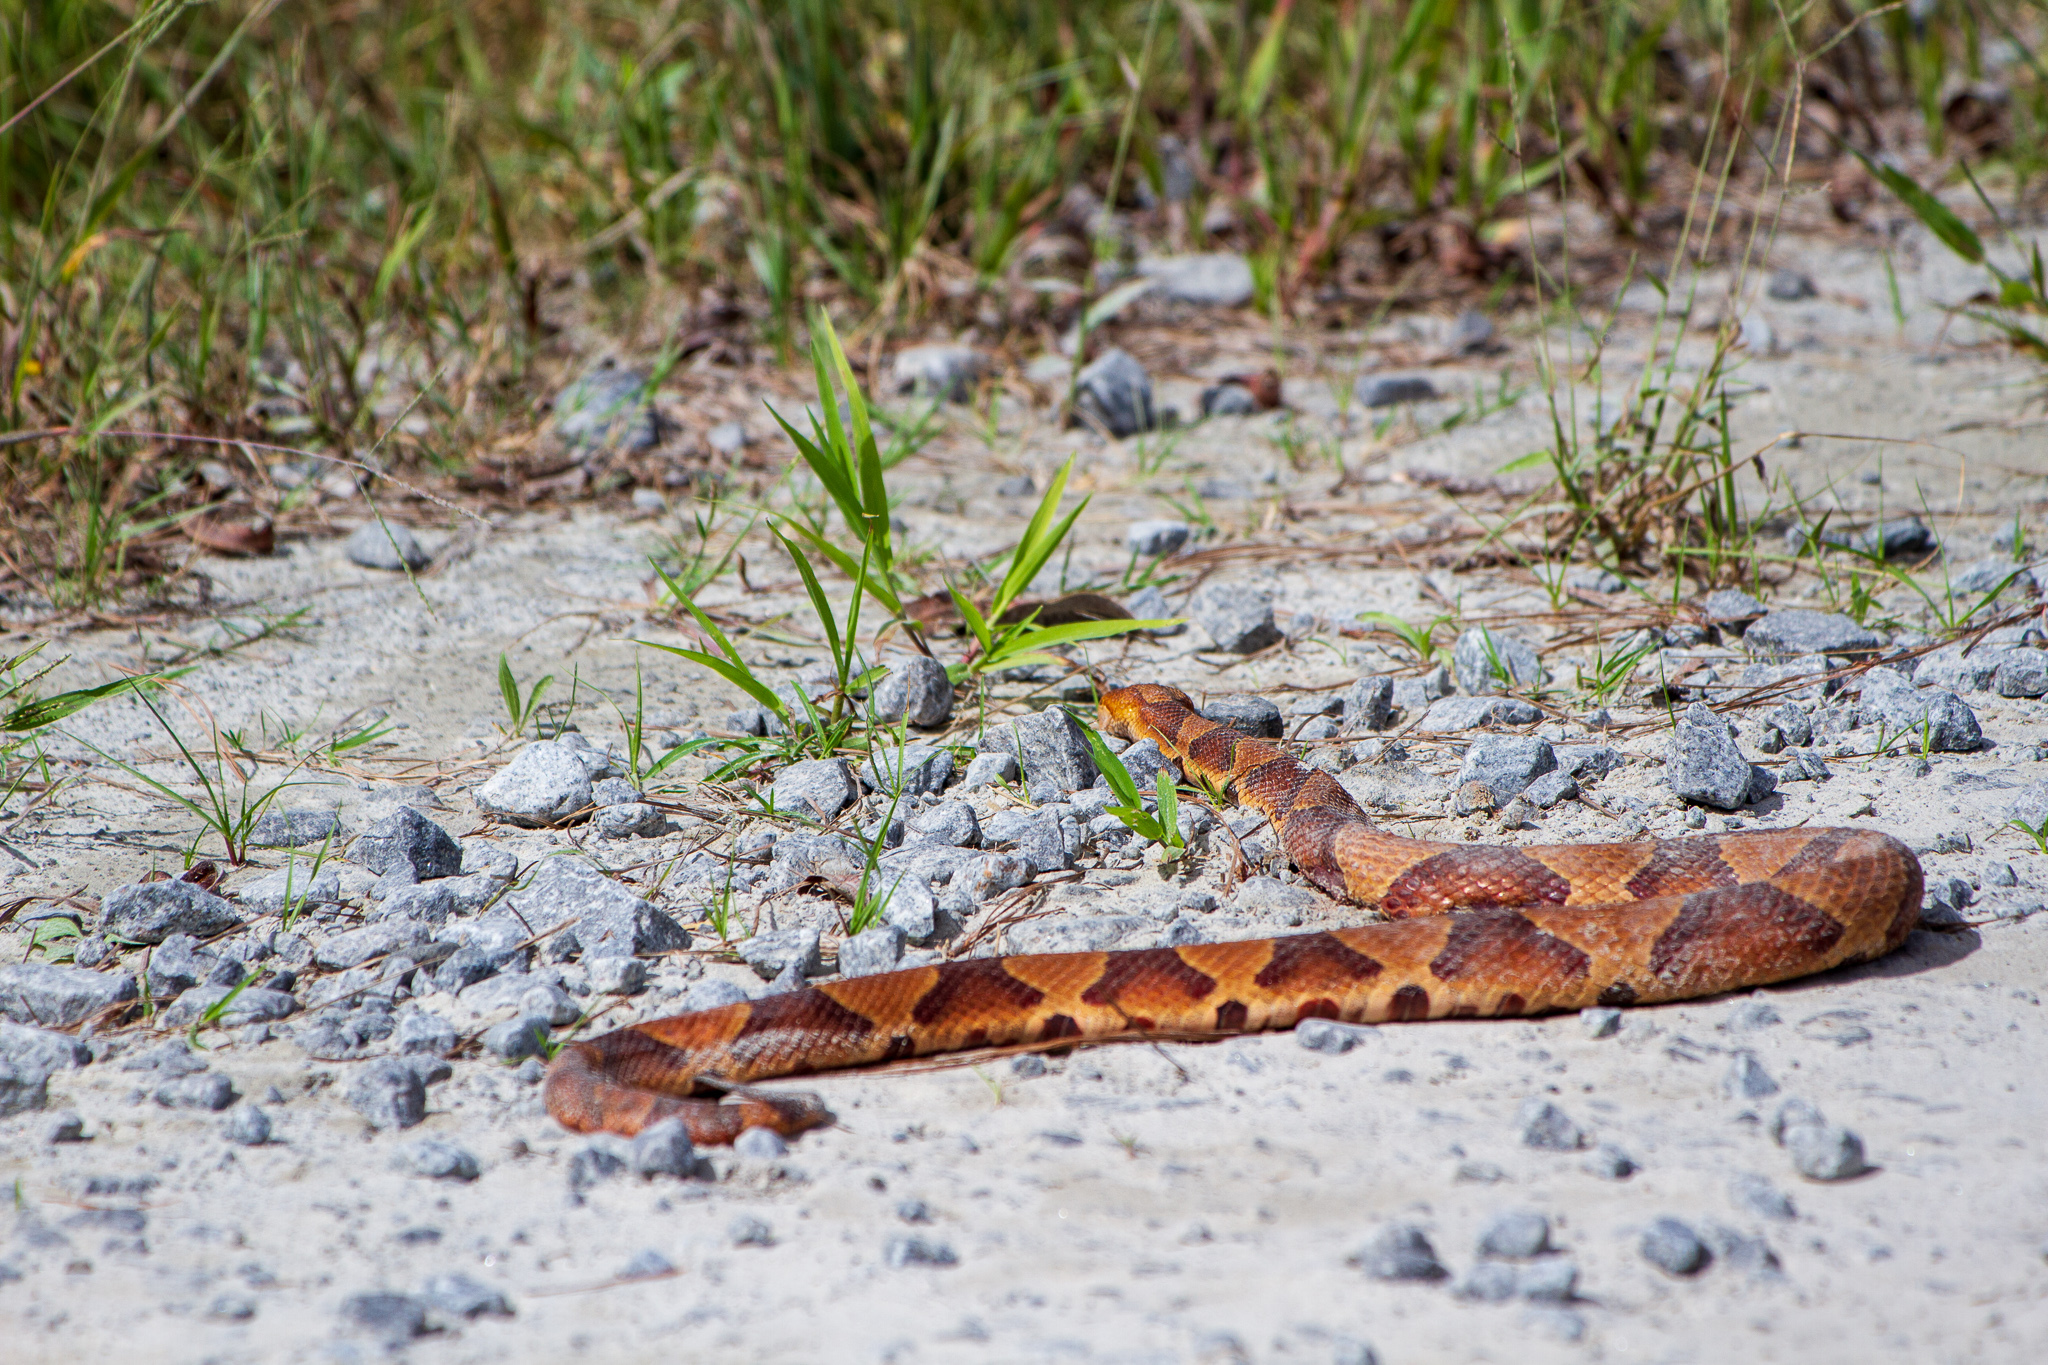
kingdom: Animalia
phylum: Chordata
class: Squamata
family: Viperidae
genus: Agkistrodon
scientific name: Agkistrodon contortrix
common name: Northern copperhead
